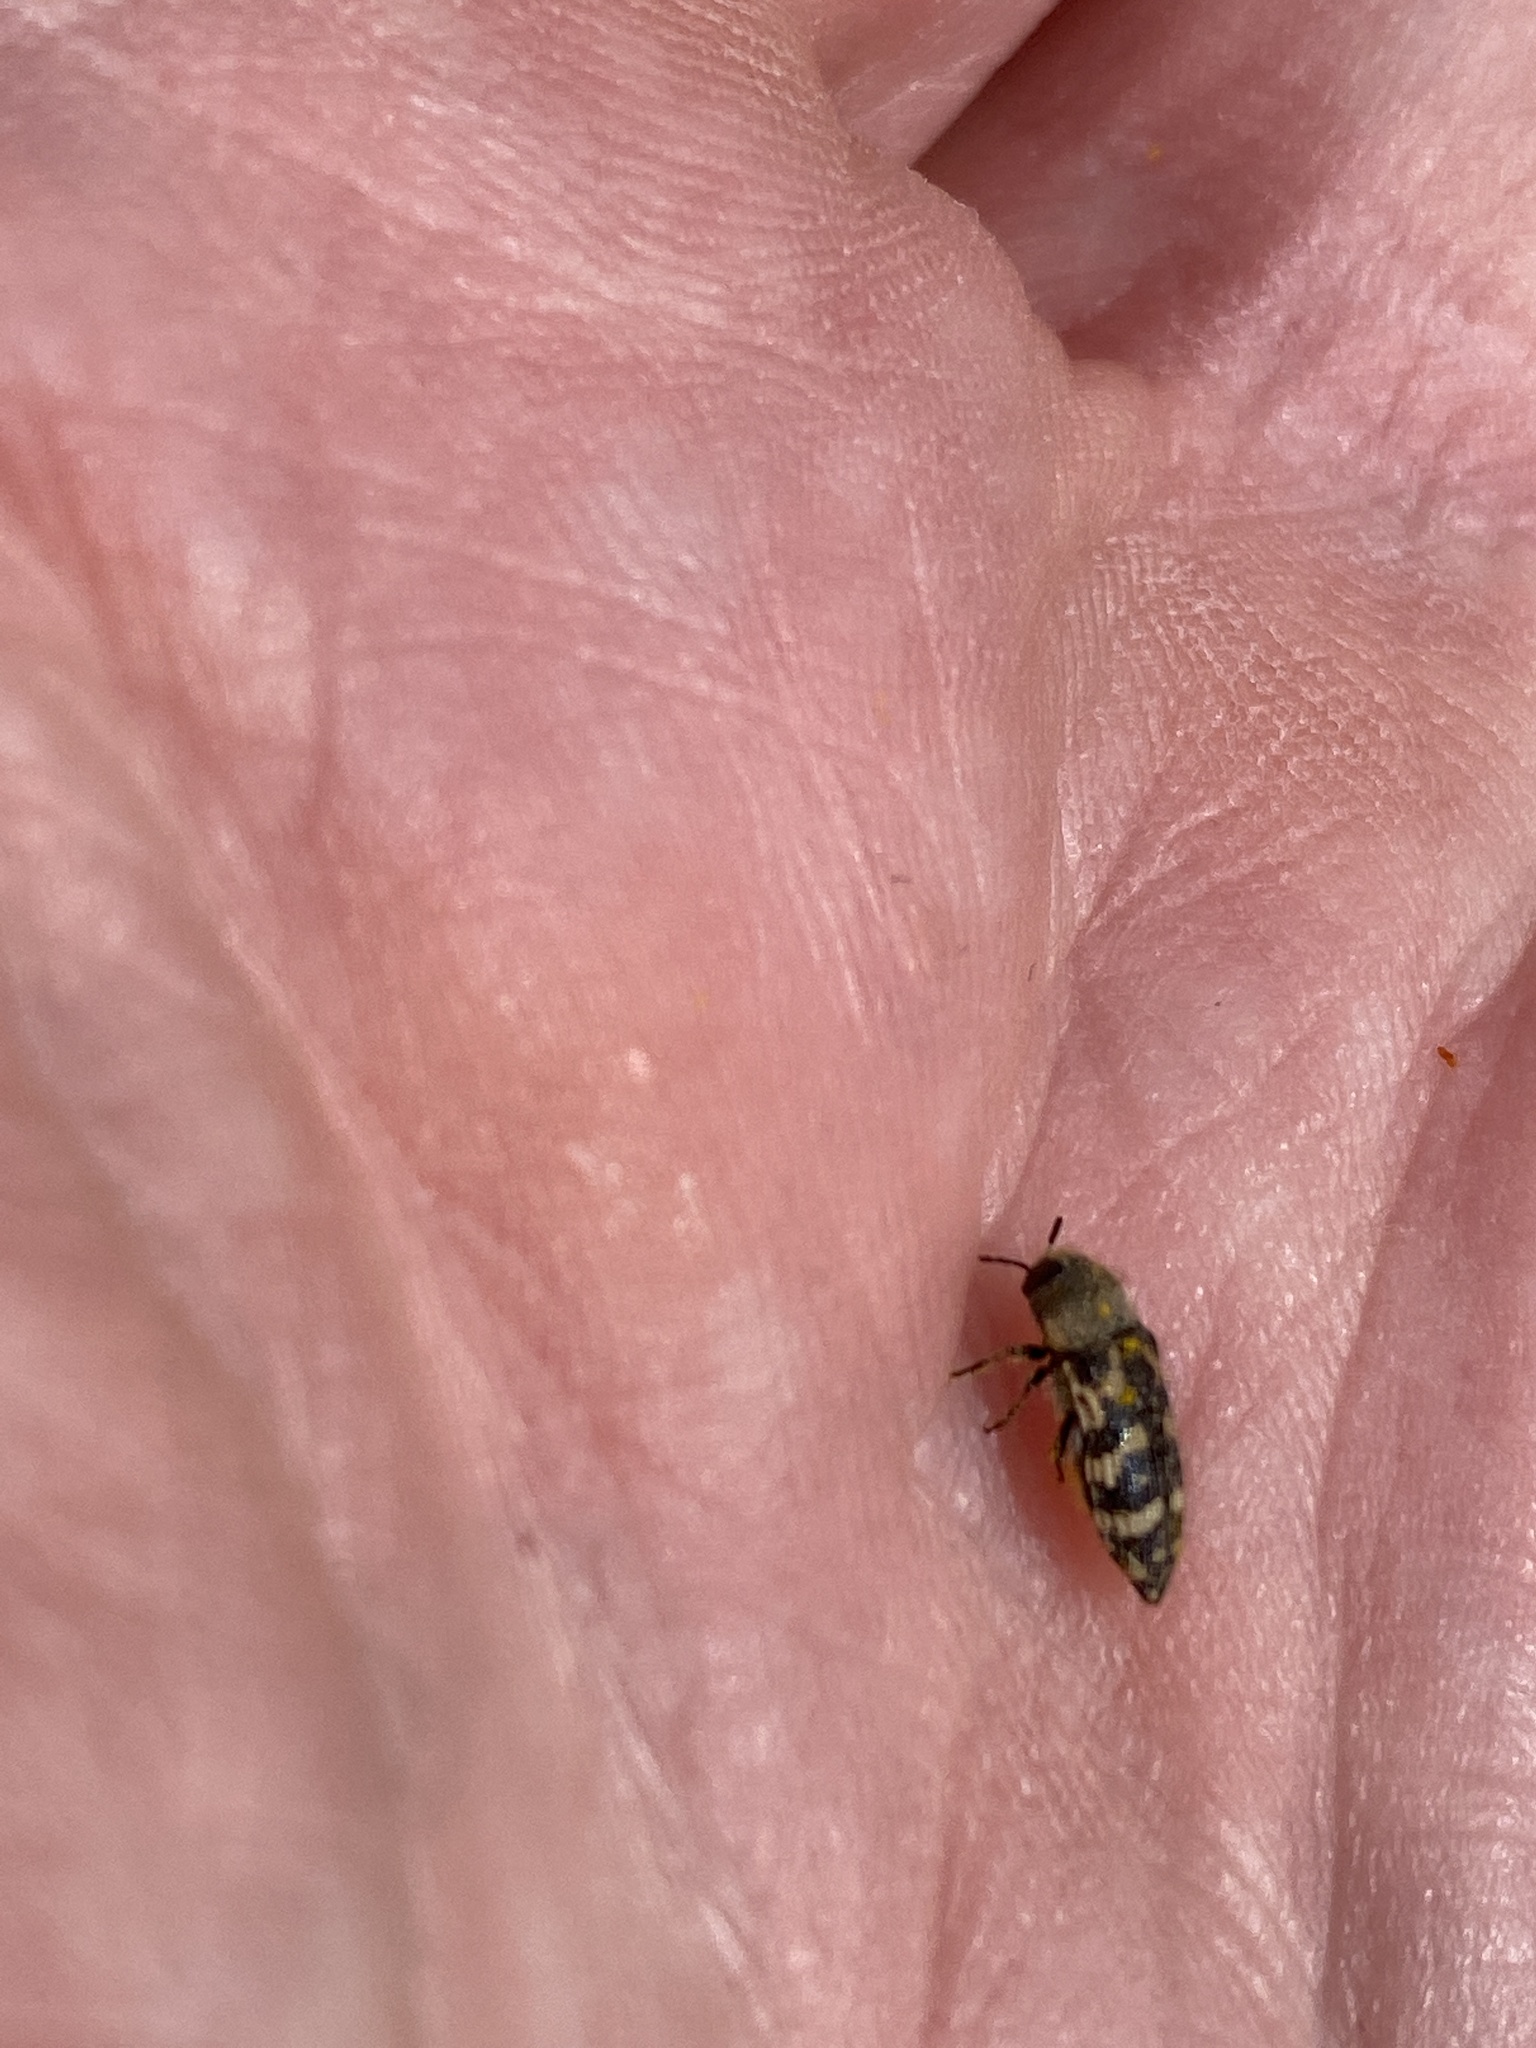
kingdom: Animalia
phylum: Arthropoda
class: Insecta
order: Coleoptera
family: Buprestidae
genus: Acmaeodera
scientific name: Acmaeodera mixta
